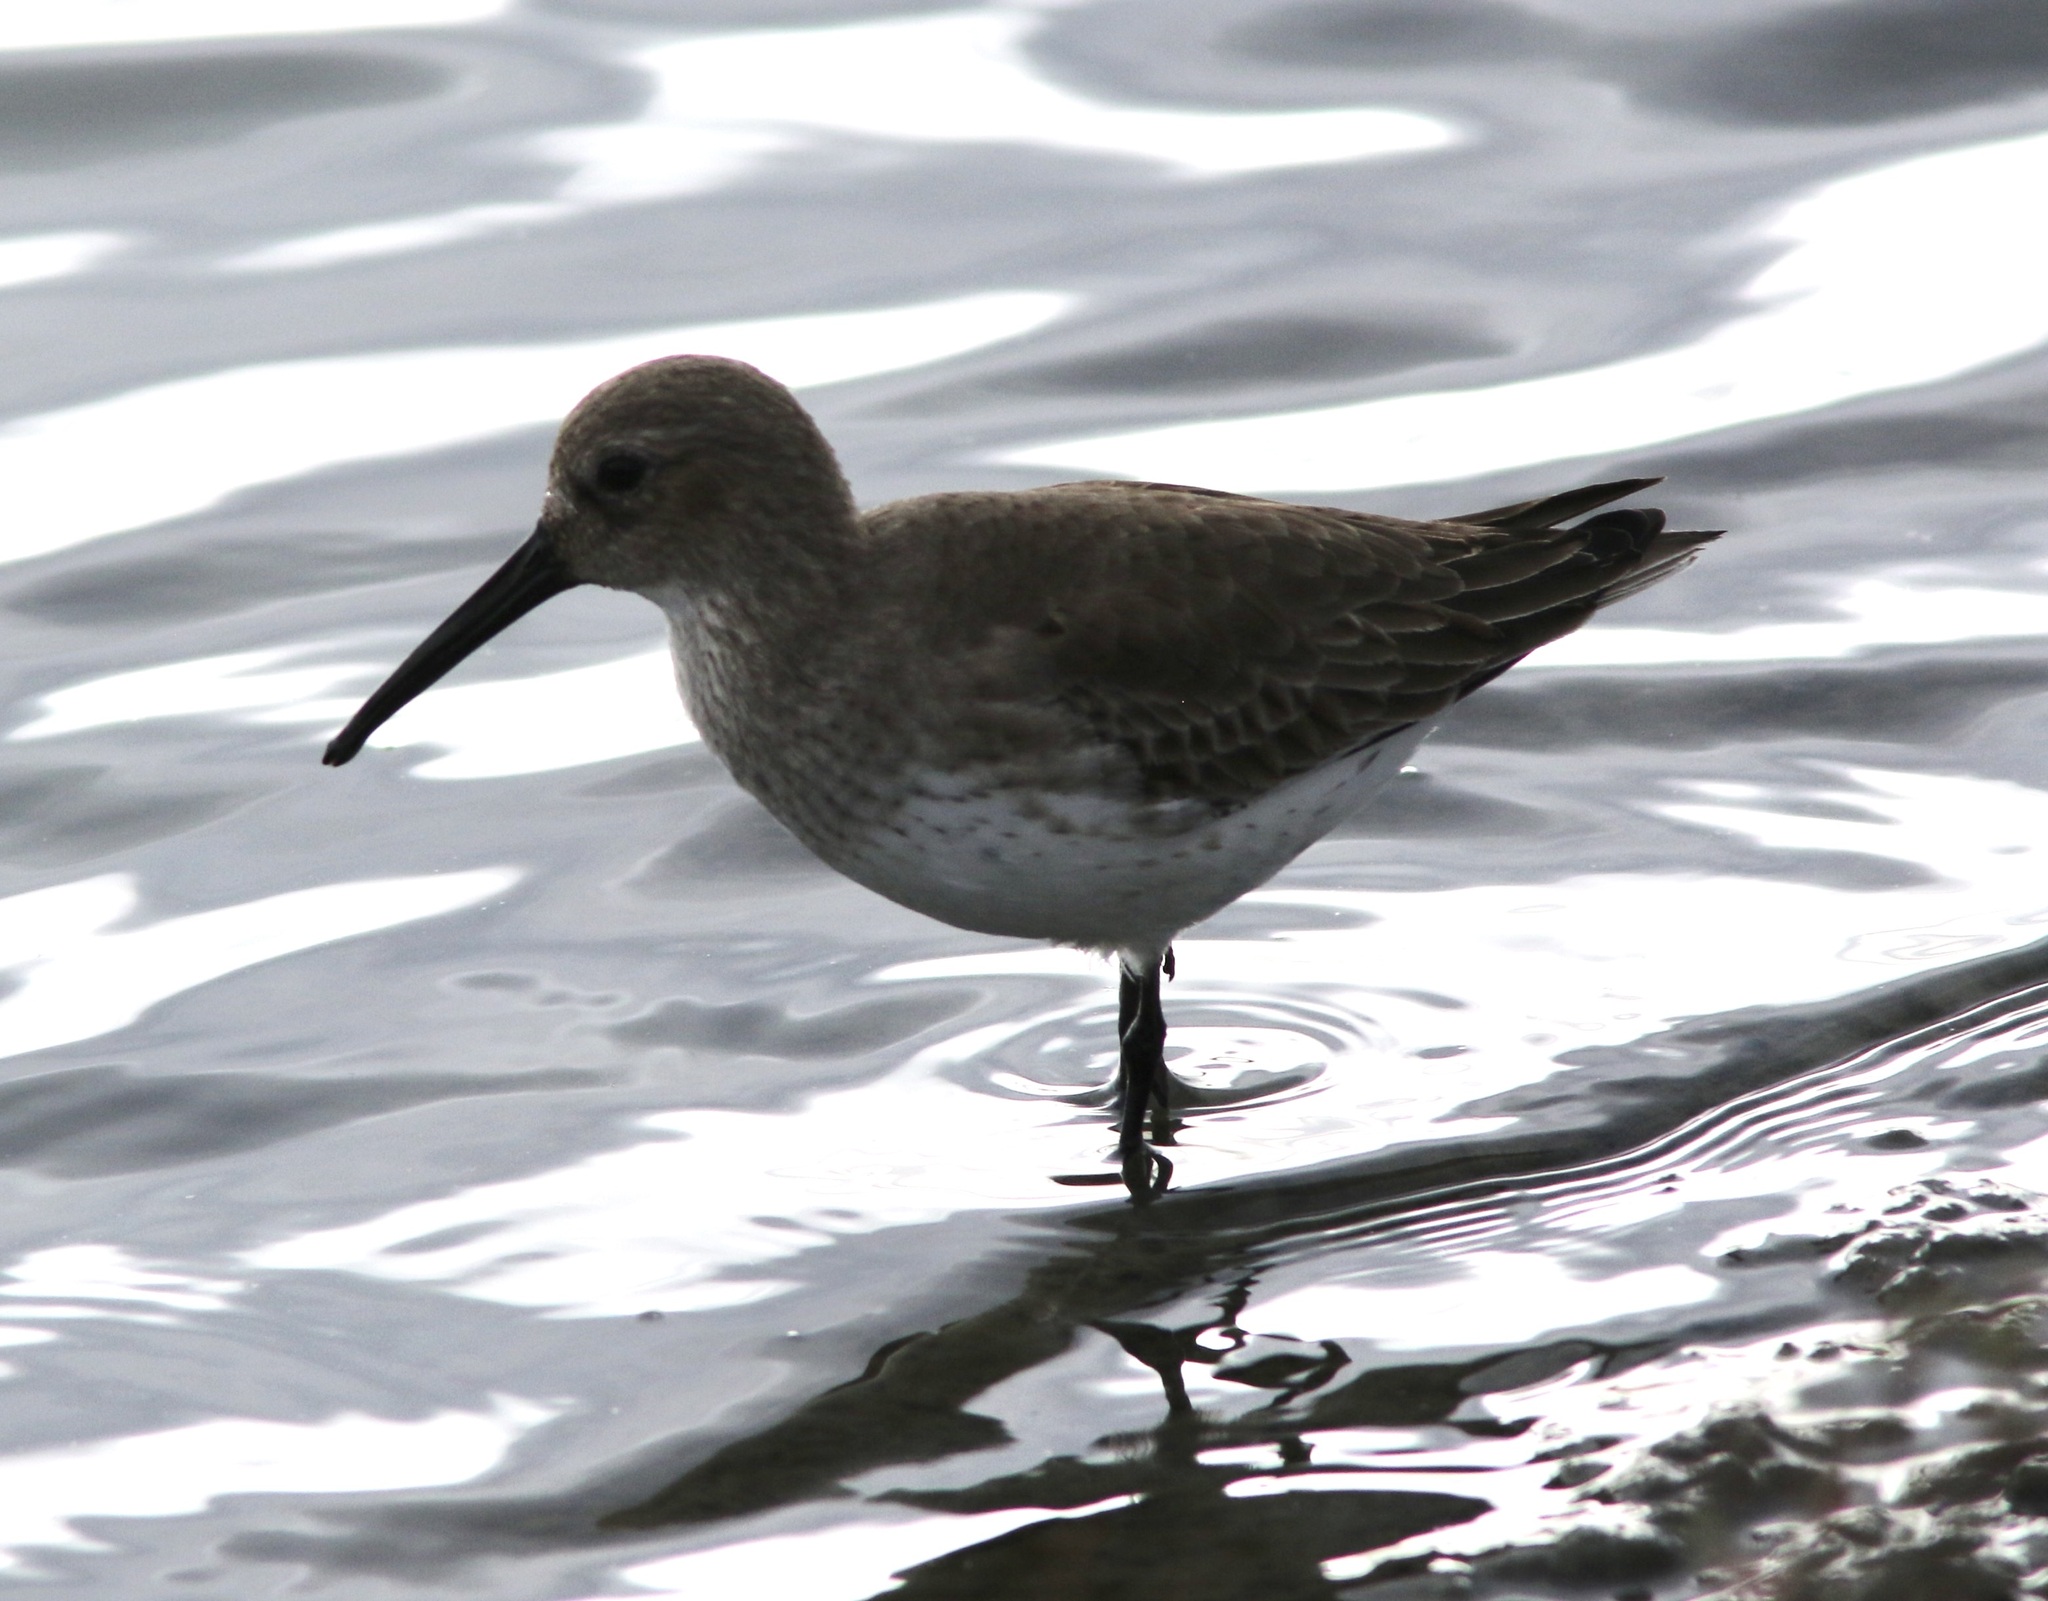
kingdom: Animalia
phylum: Chordata
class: Aves
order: Charadriiformes
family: Scolopacidae
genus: Calidris
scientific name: Calidris alpina
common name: Dunlin
